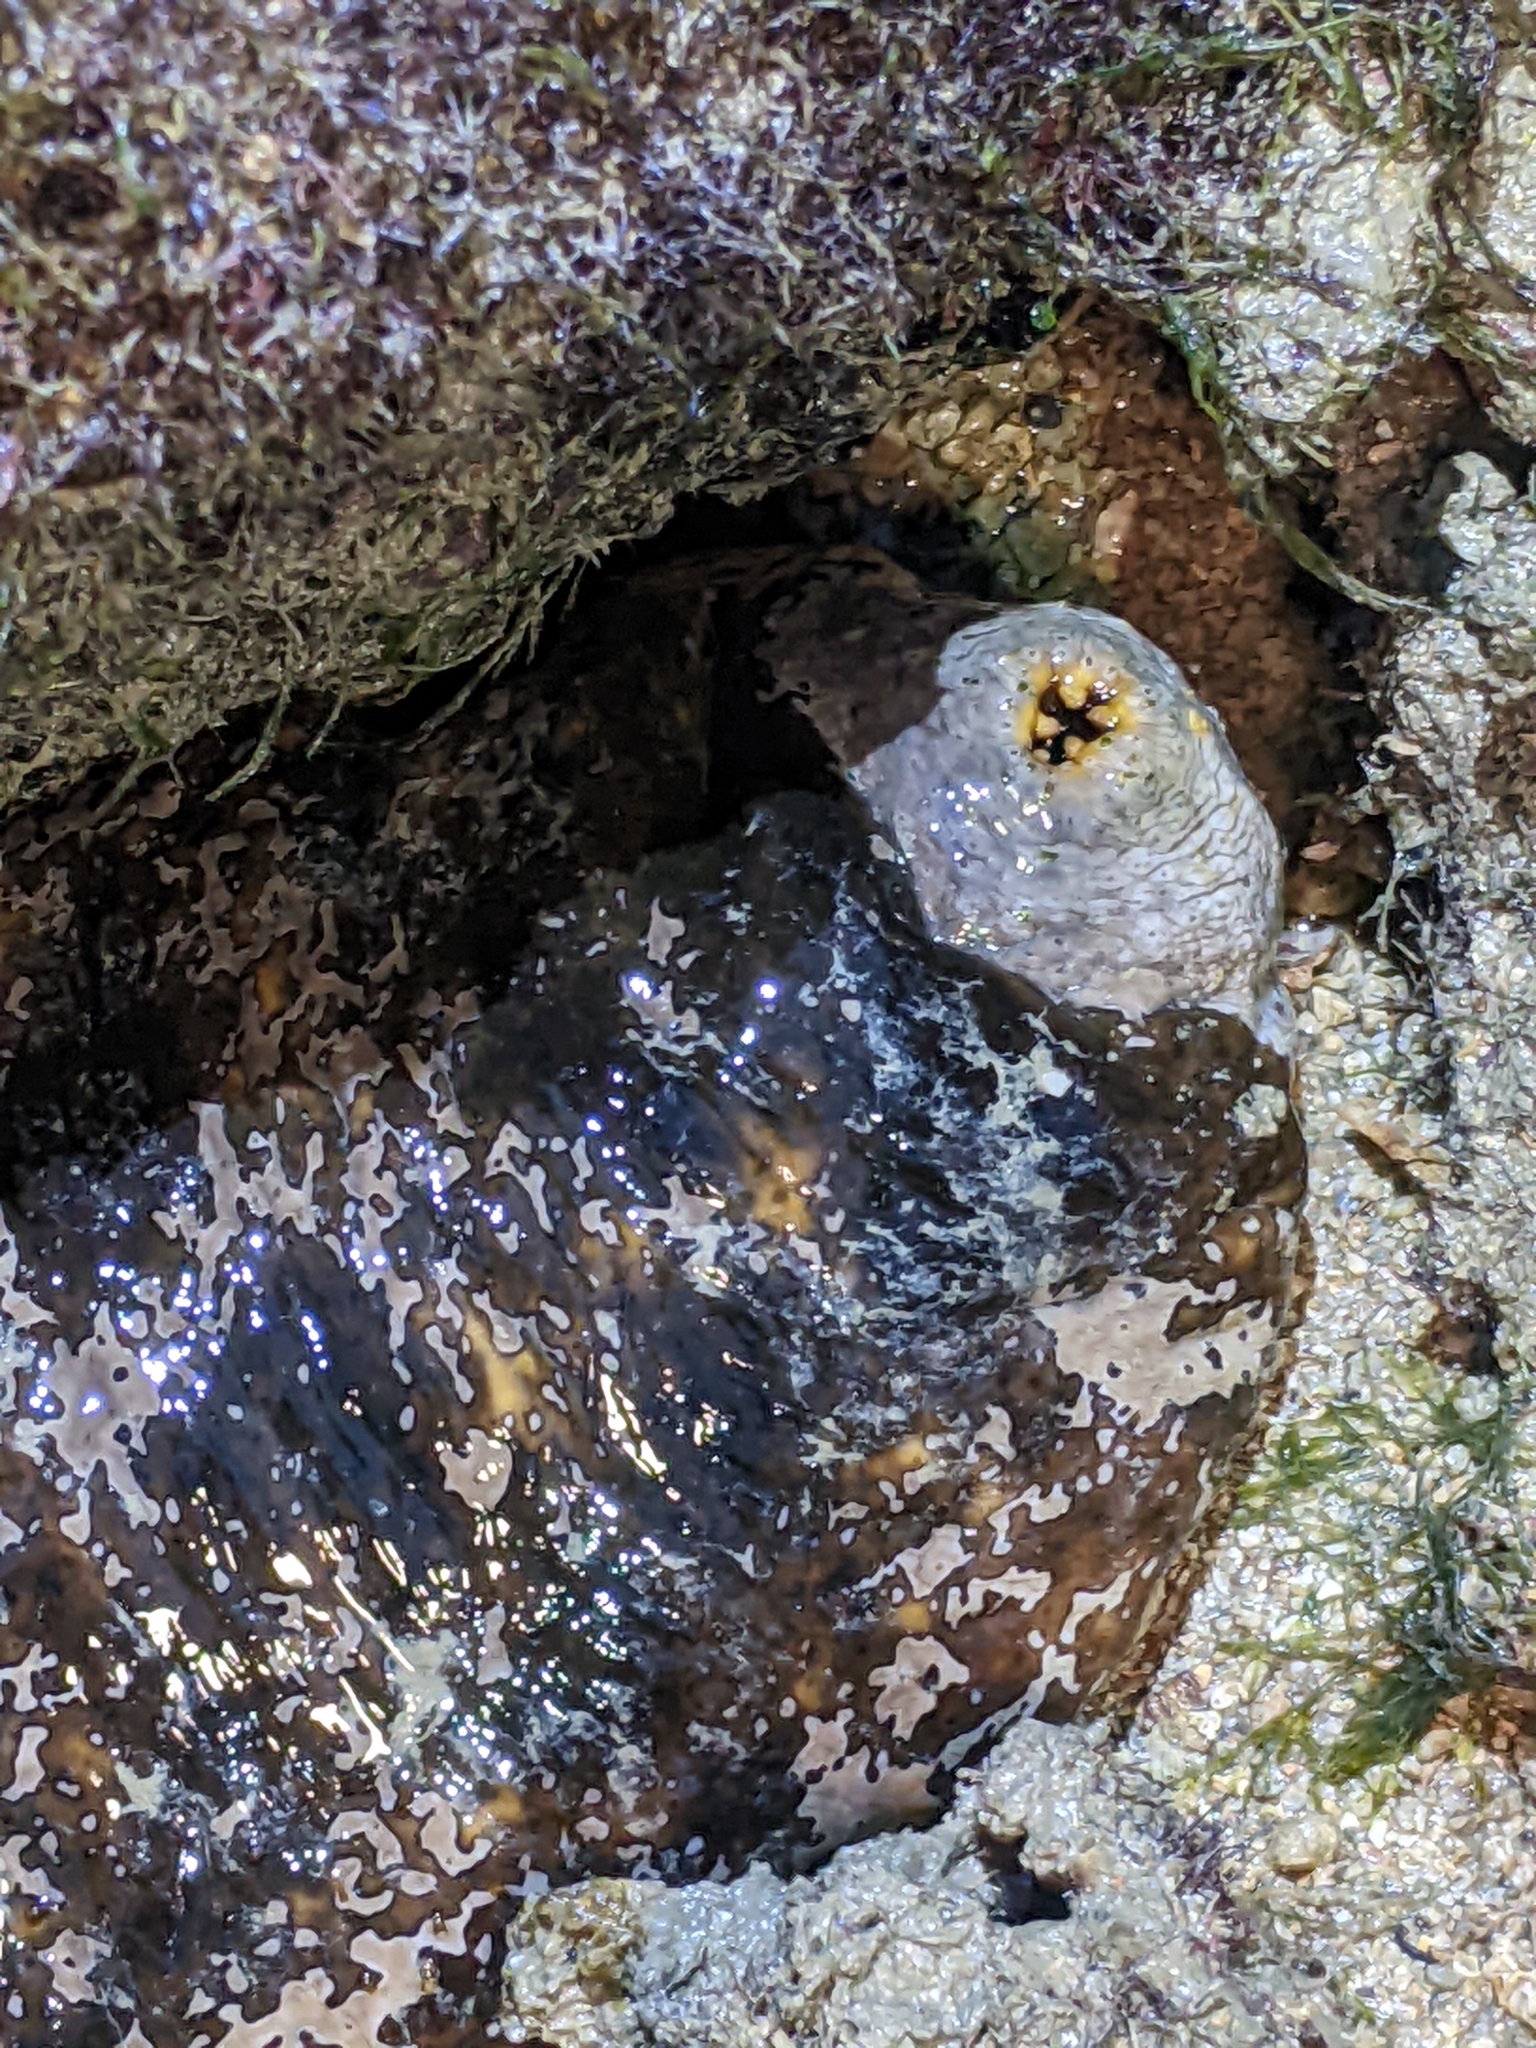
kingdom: Animalia
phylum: Echinodermata
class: Holothuroidea
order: Holothuriida
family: Holothuriidae
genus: Actinopyga
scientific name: Actinopyga lecanora
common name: Stonefish
